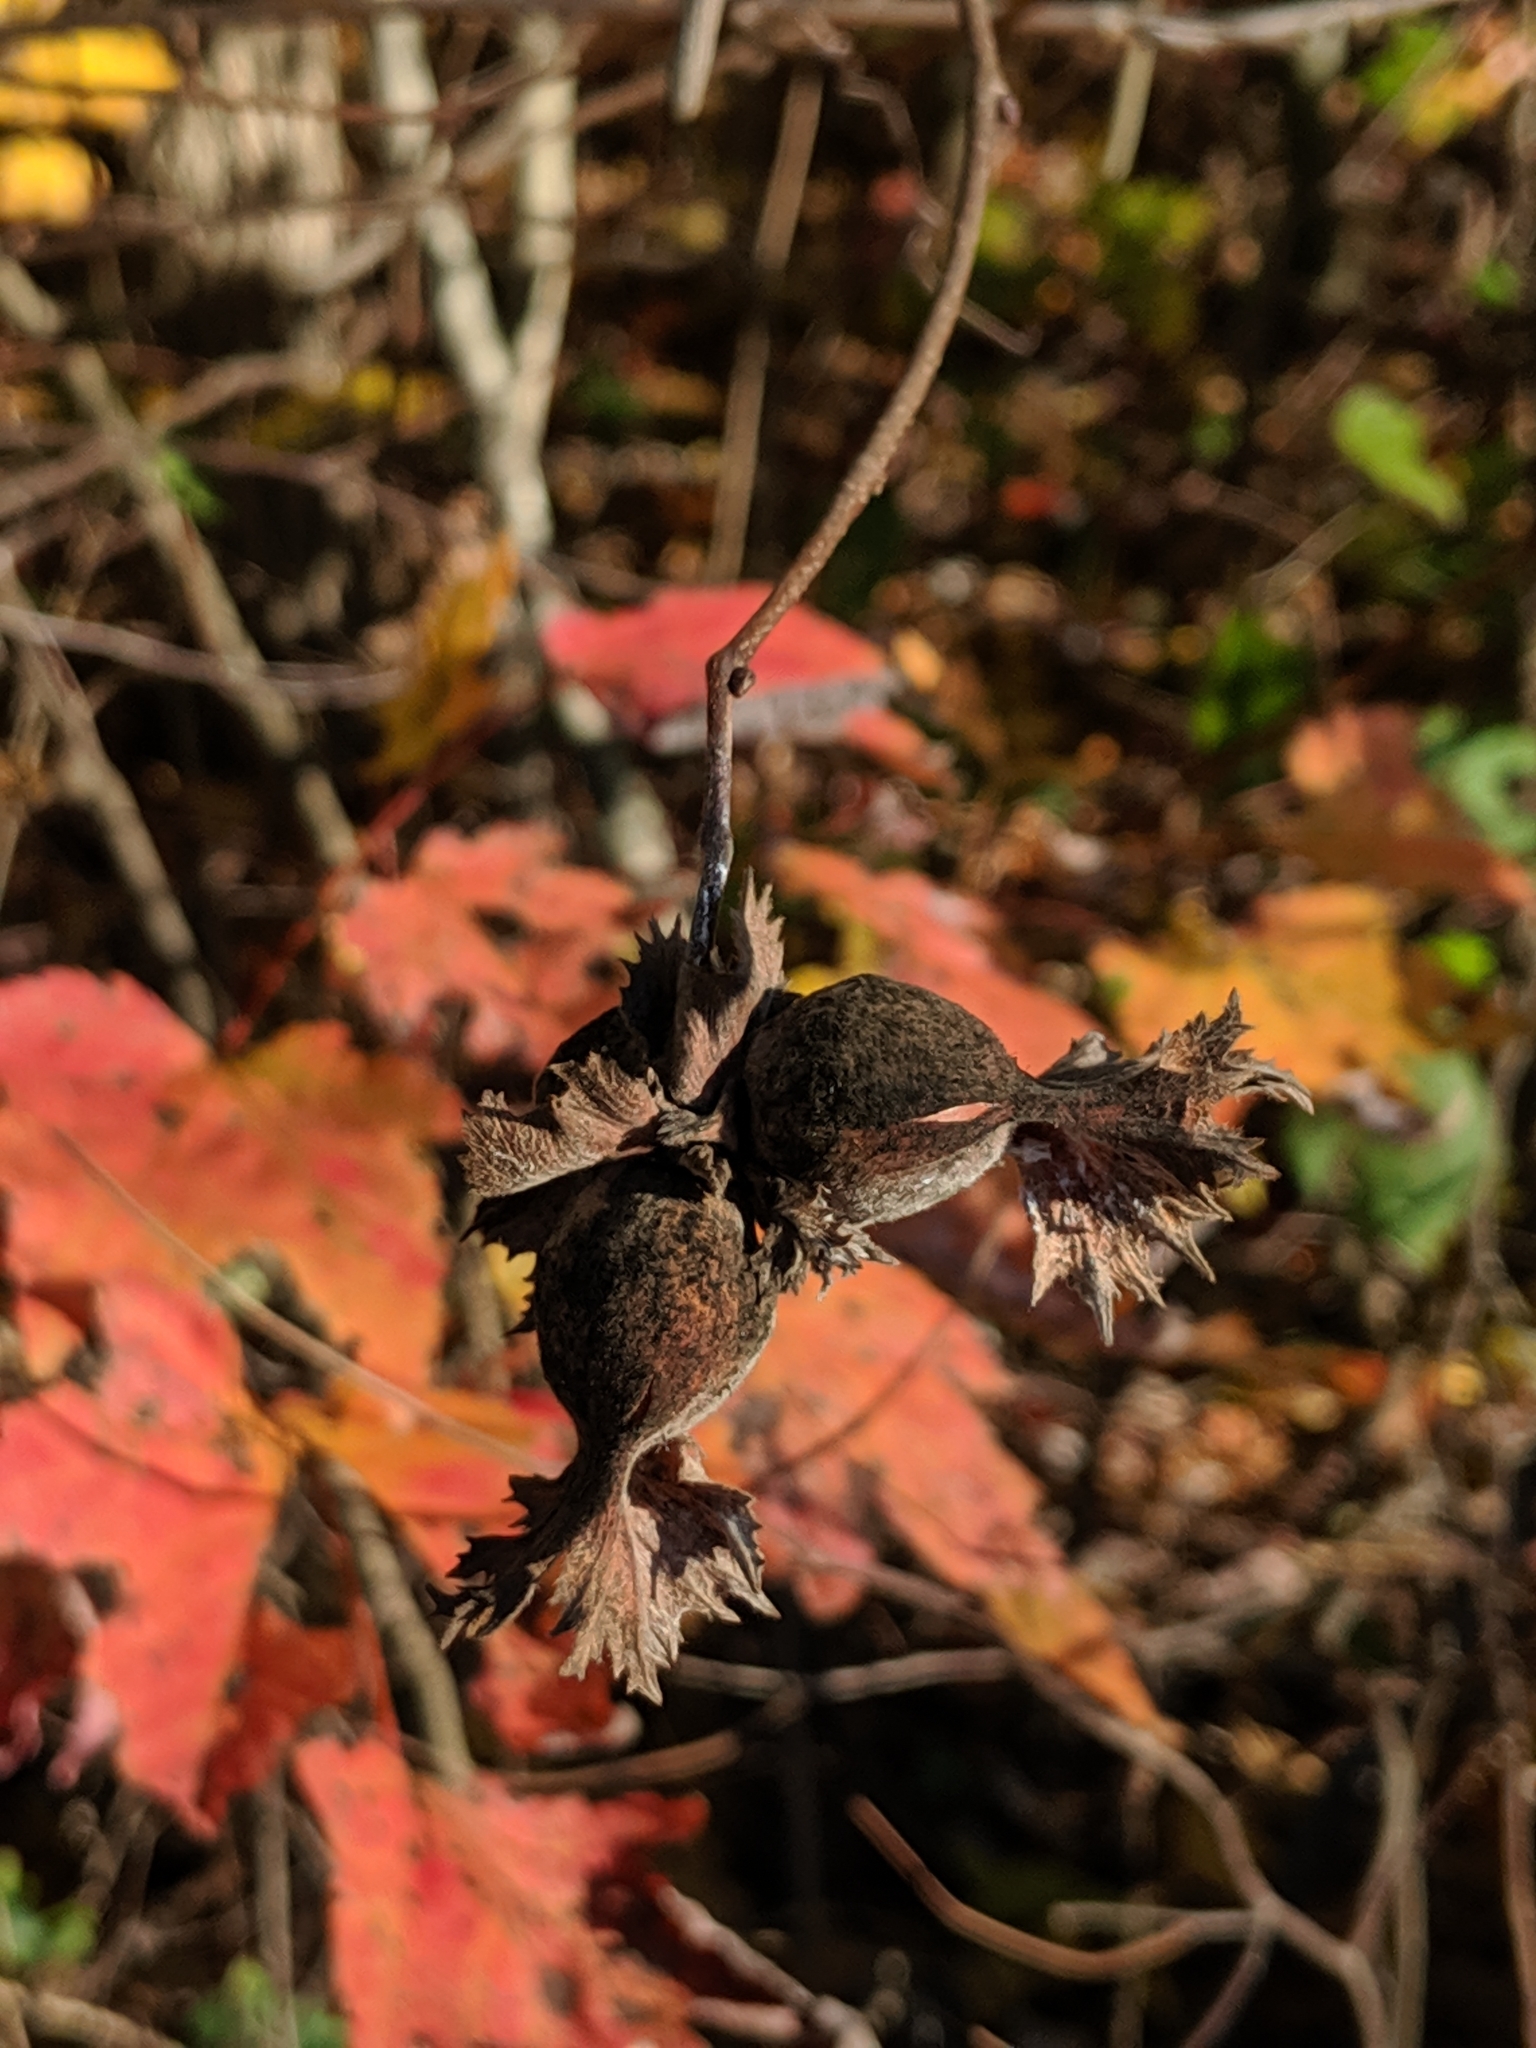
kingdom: Plantae
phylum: Tracheophyta
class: Magnoliopsida
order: Fagales
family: Betulaceae
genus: Corylus
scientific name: Corylus americana
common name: American hazel
